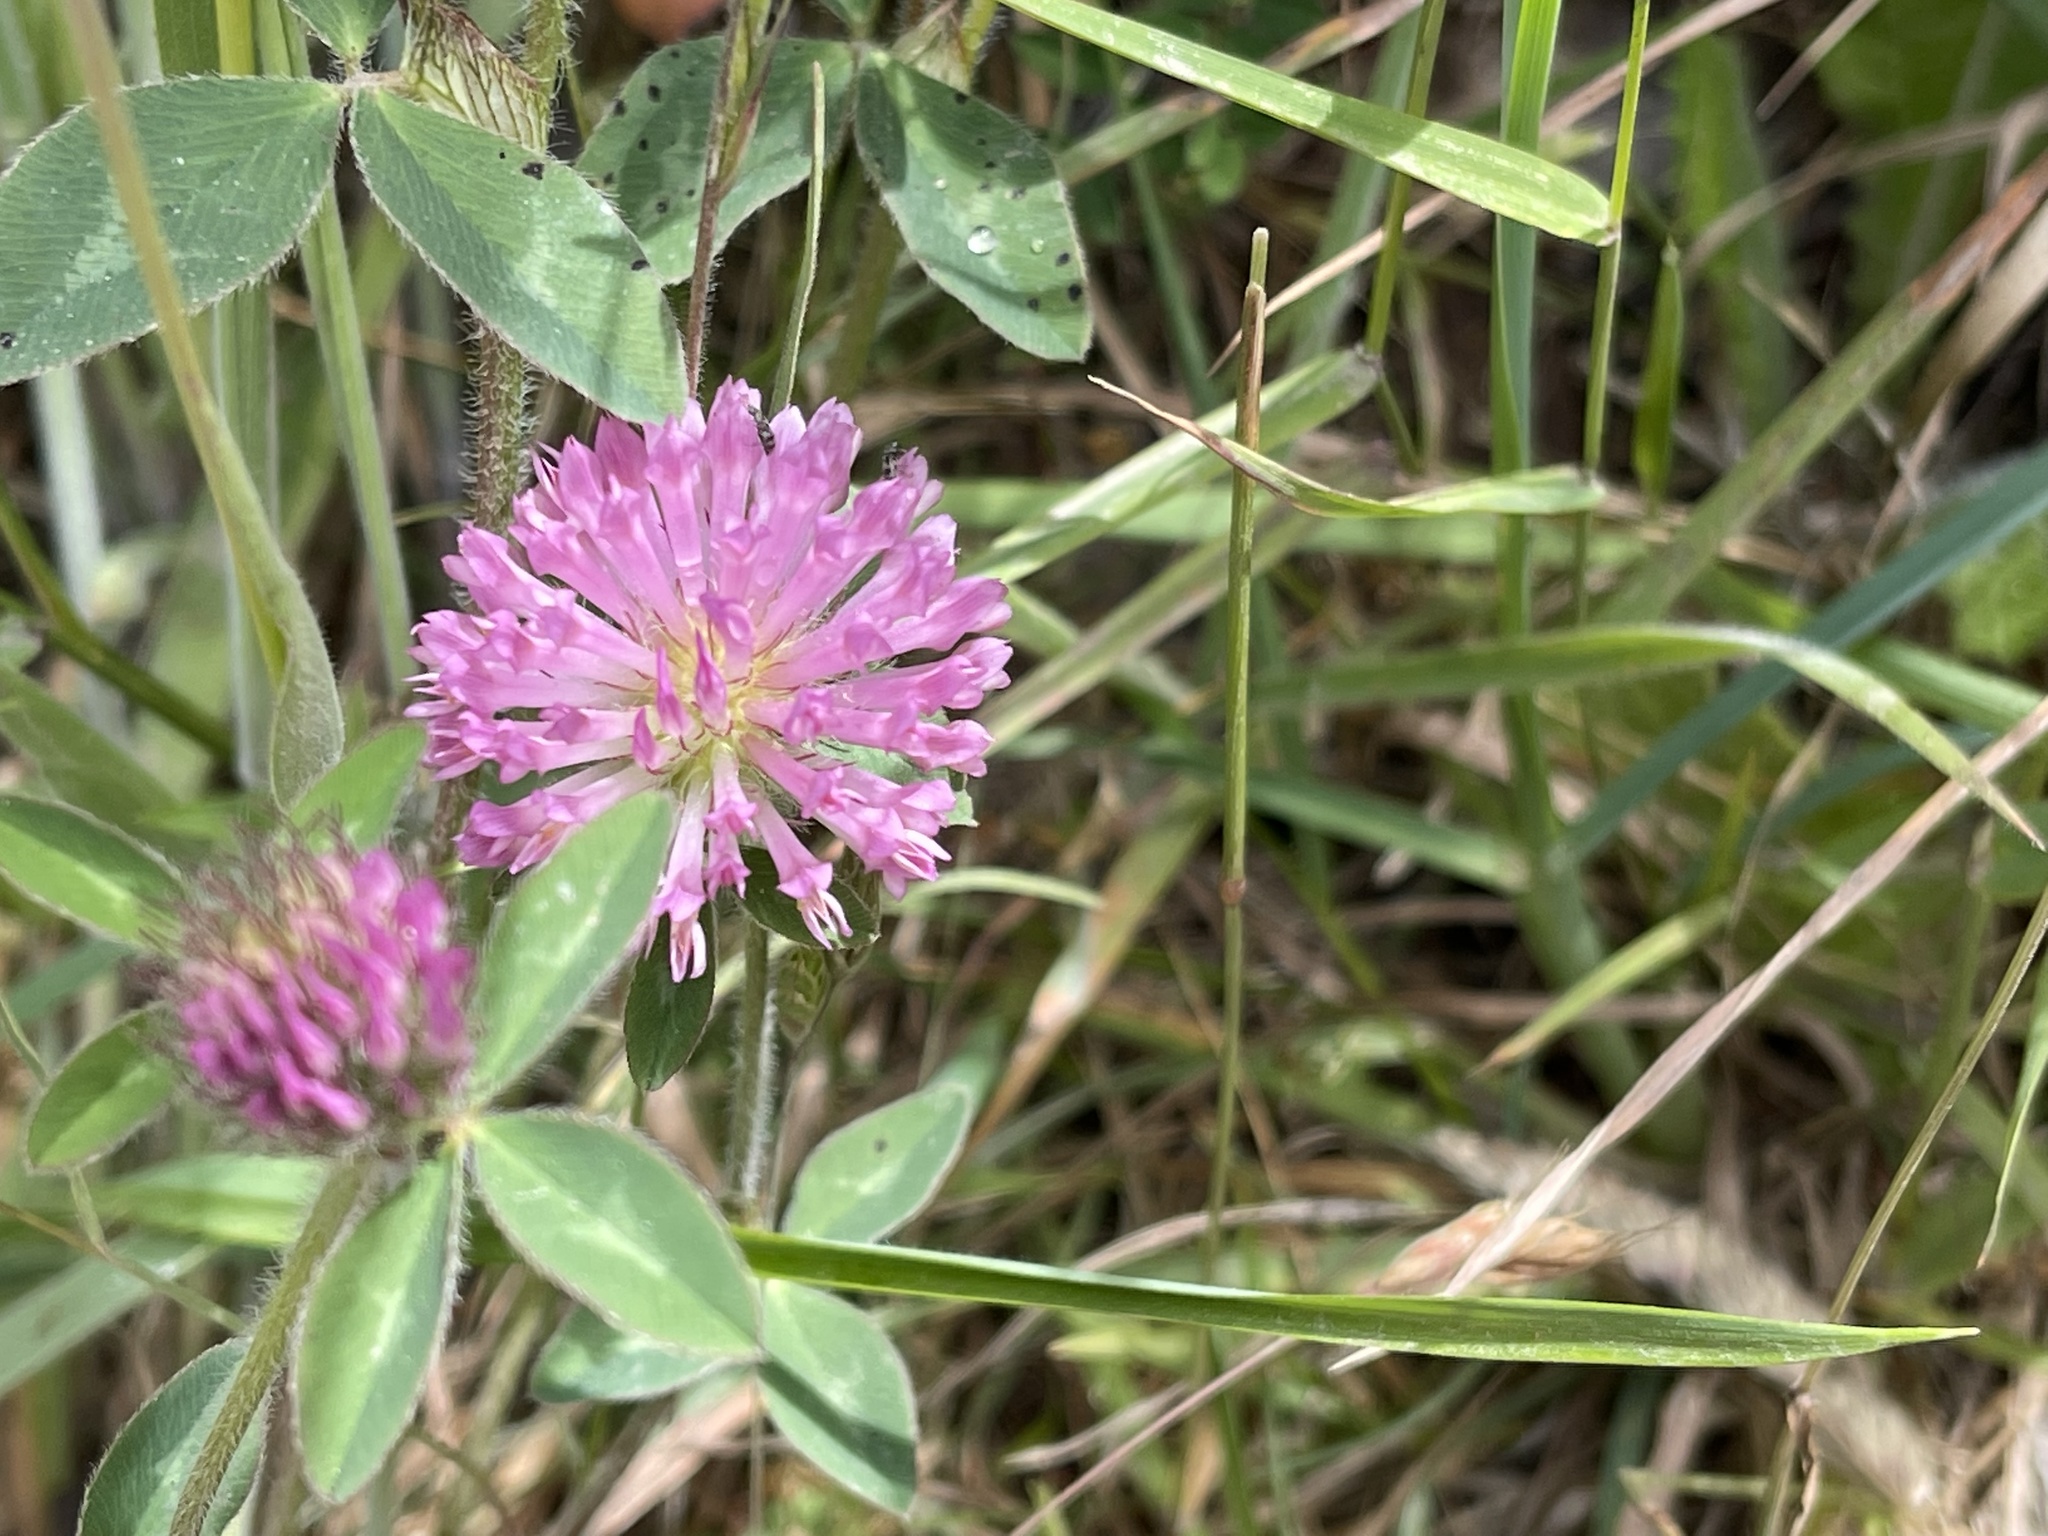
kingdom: Plantae
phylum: Tracheophyta
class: Magnoliopsida
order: Fabales
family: Fabaceae
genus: Trifolium
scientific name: Trifolium pratense
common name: Red clover
